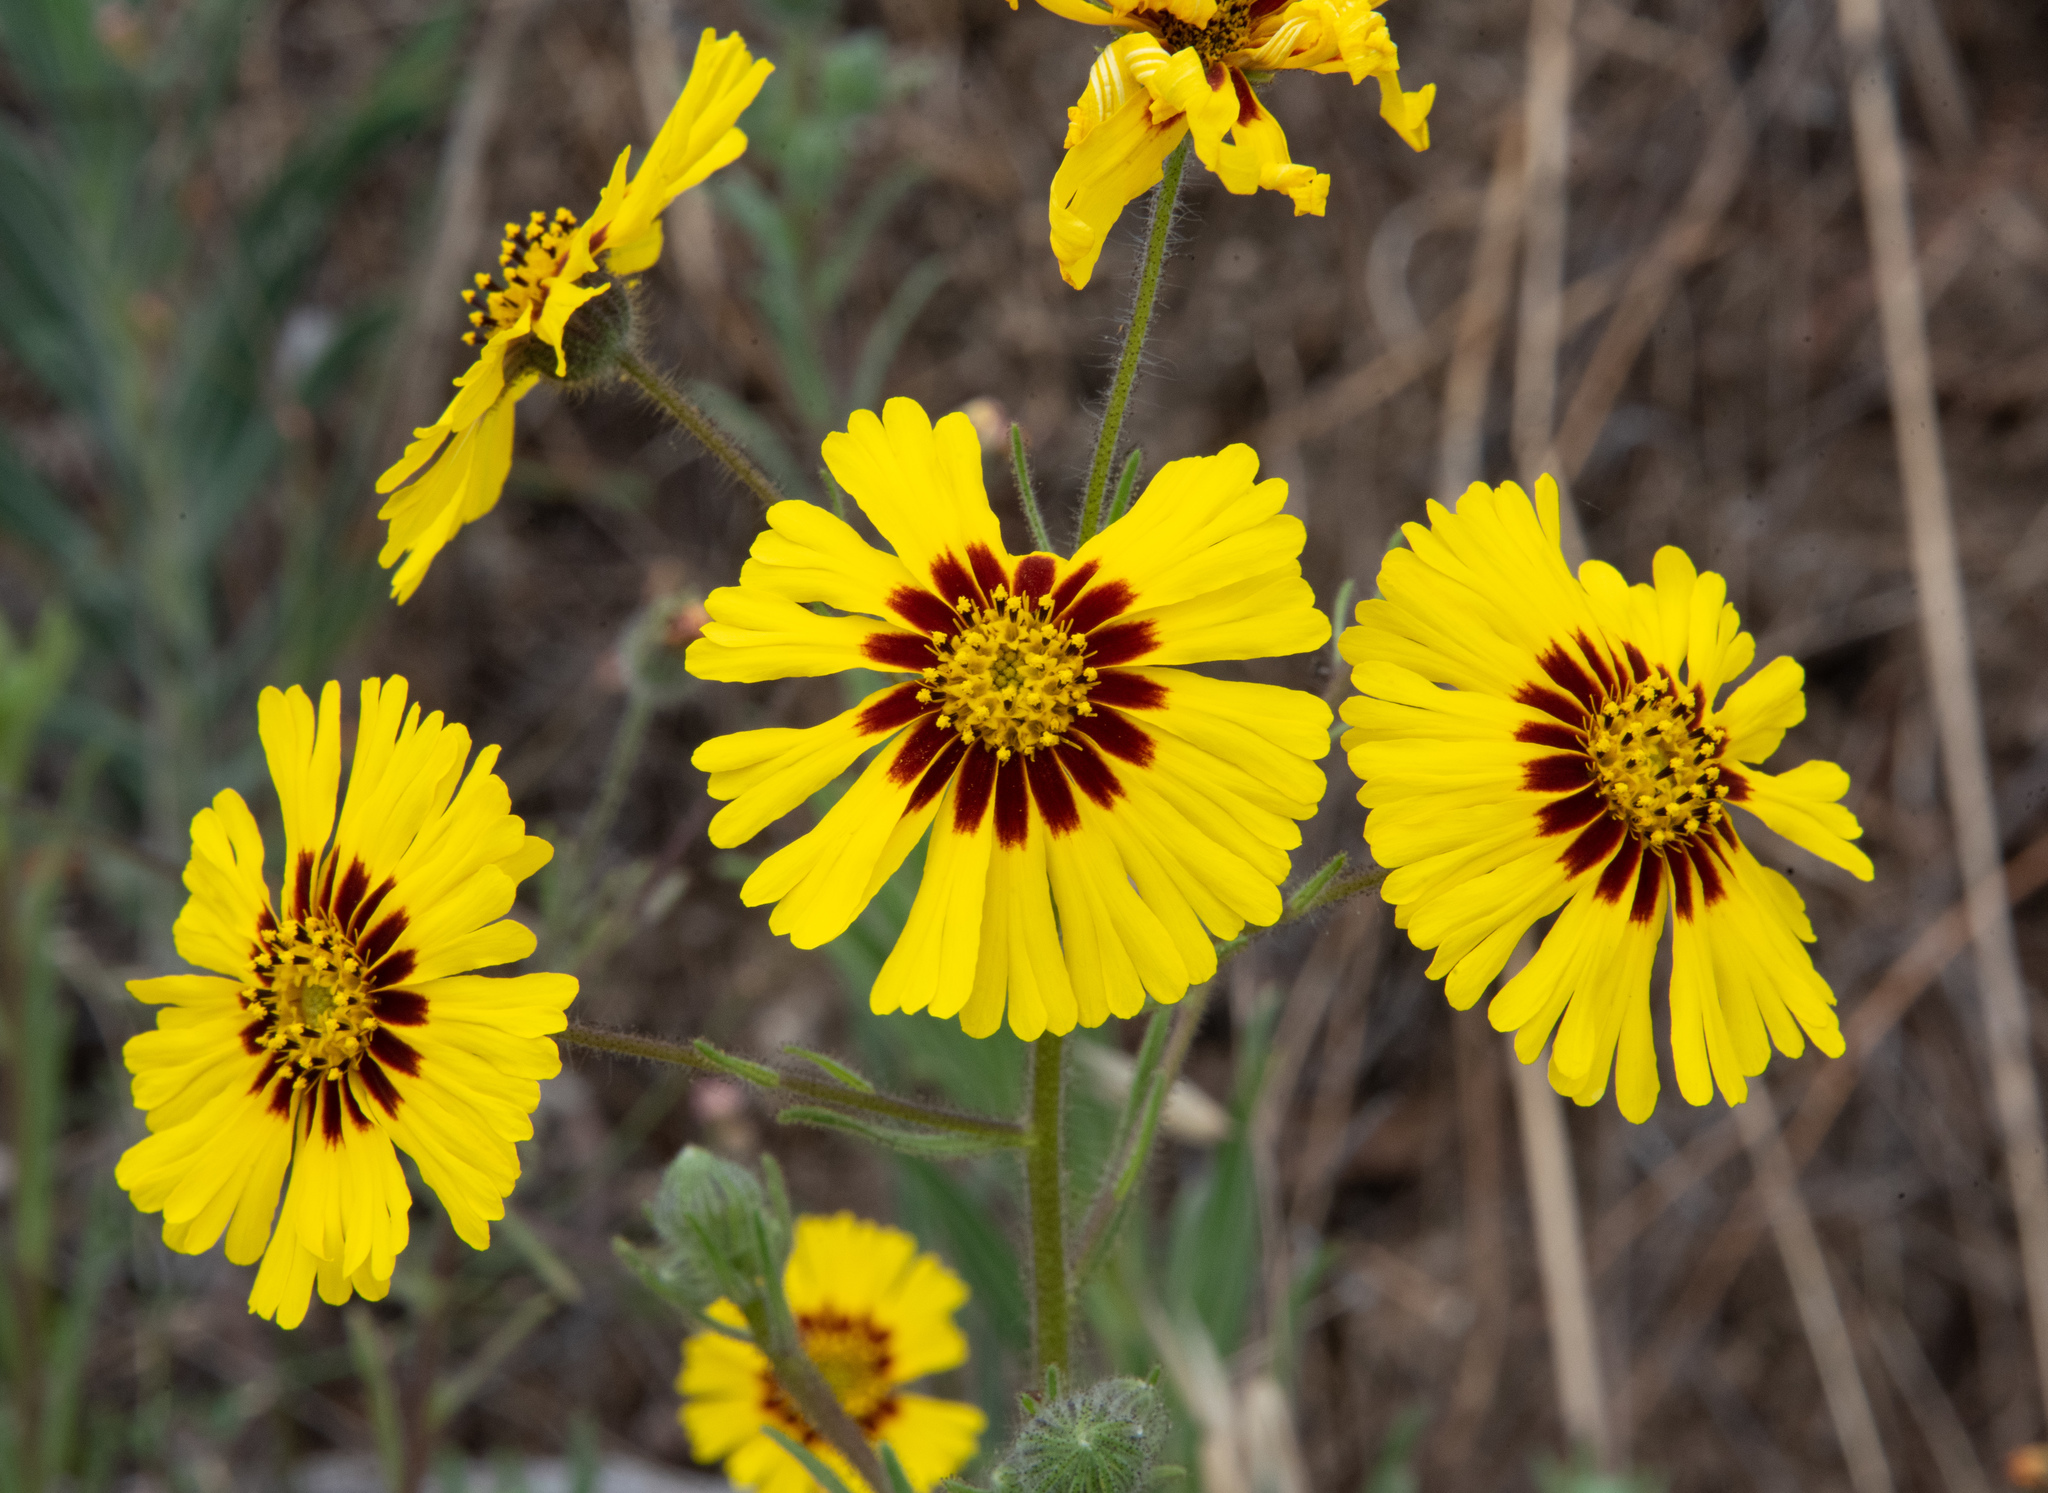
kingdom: Plantae
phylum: Tracheophyta
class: Magnoliopsida
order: Asterales
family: Asteraceae
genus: Madia
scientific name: Madia elegans
